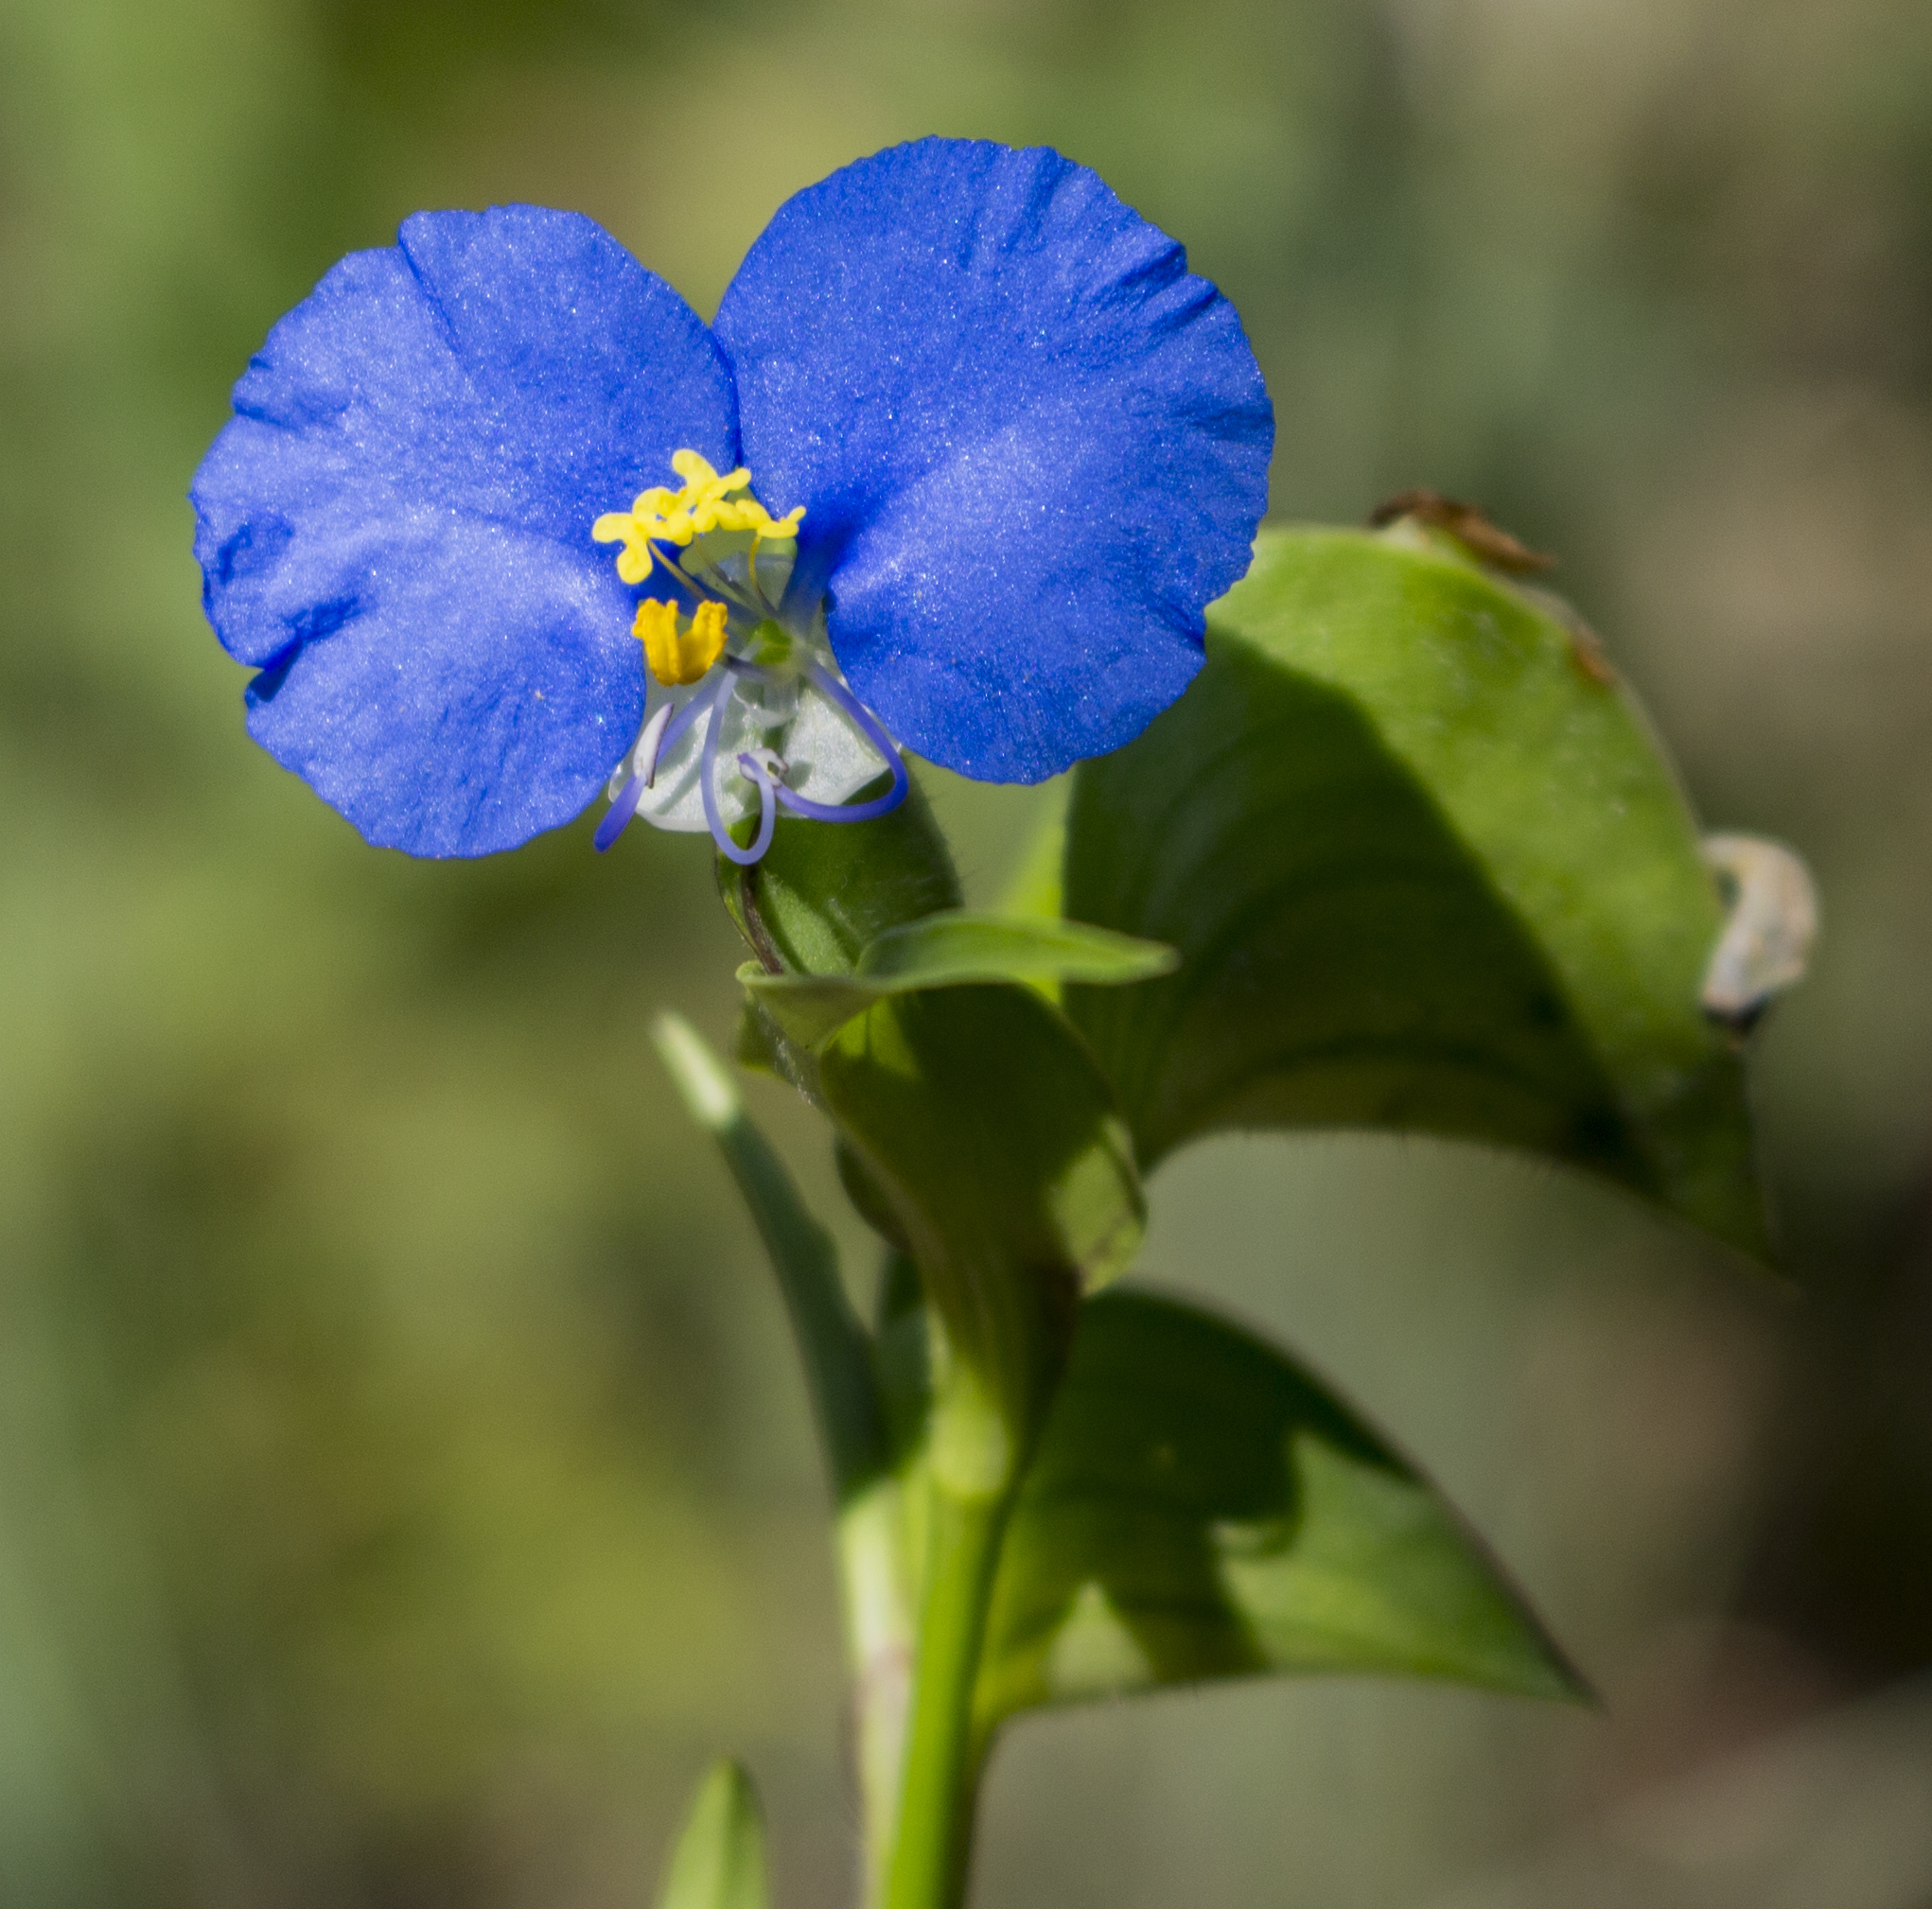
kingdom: Plantae
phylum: Tracheophyta
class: Liliopsida
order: Commelinales
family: Commelinaceae
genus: Commelina
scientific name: Commelina erecta
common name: Blousel blommetjie
